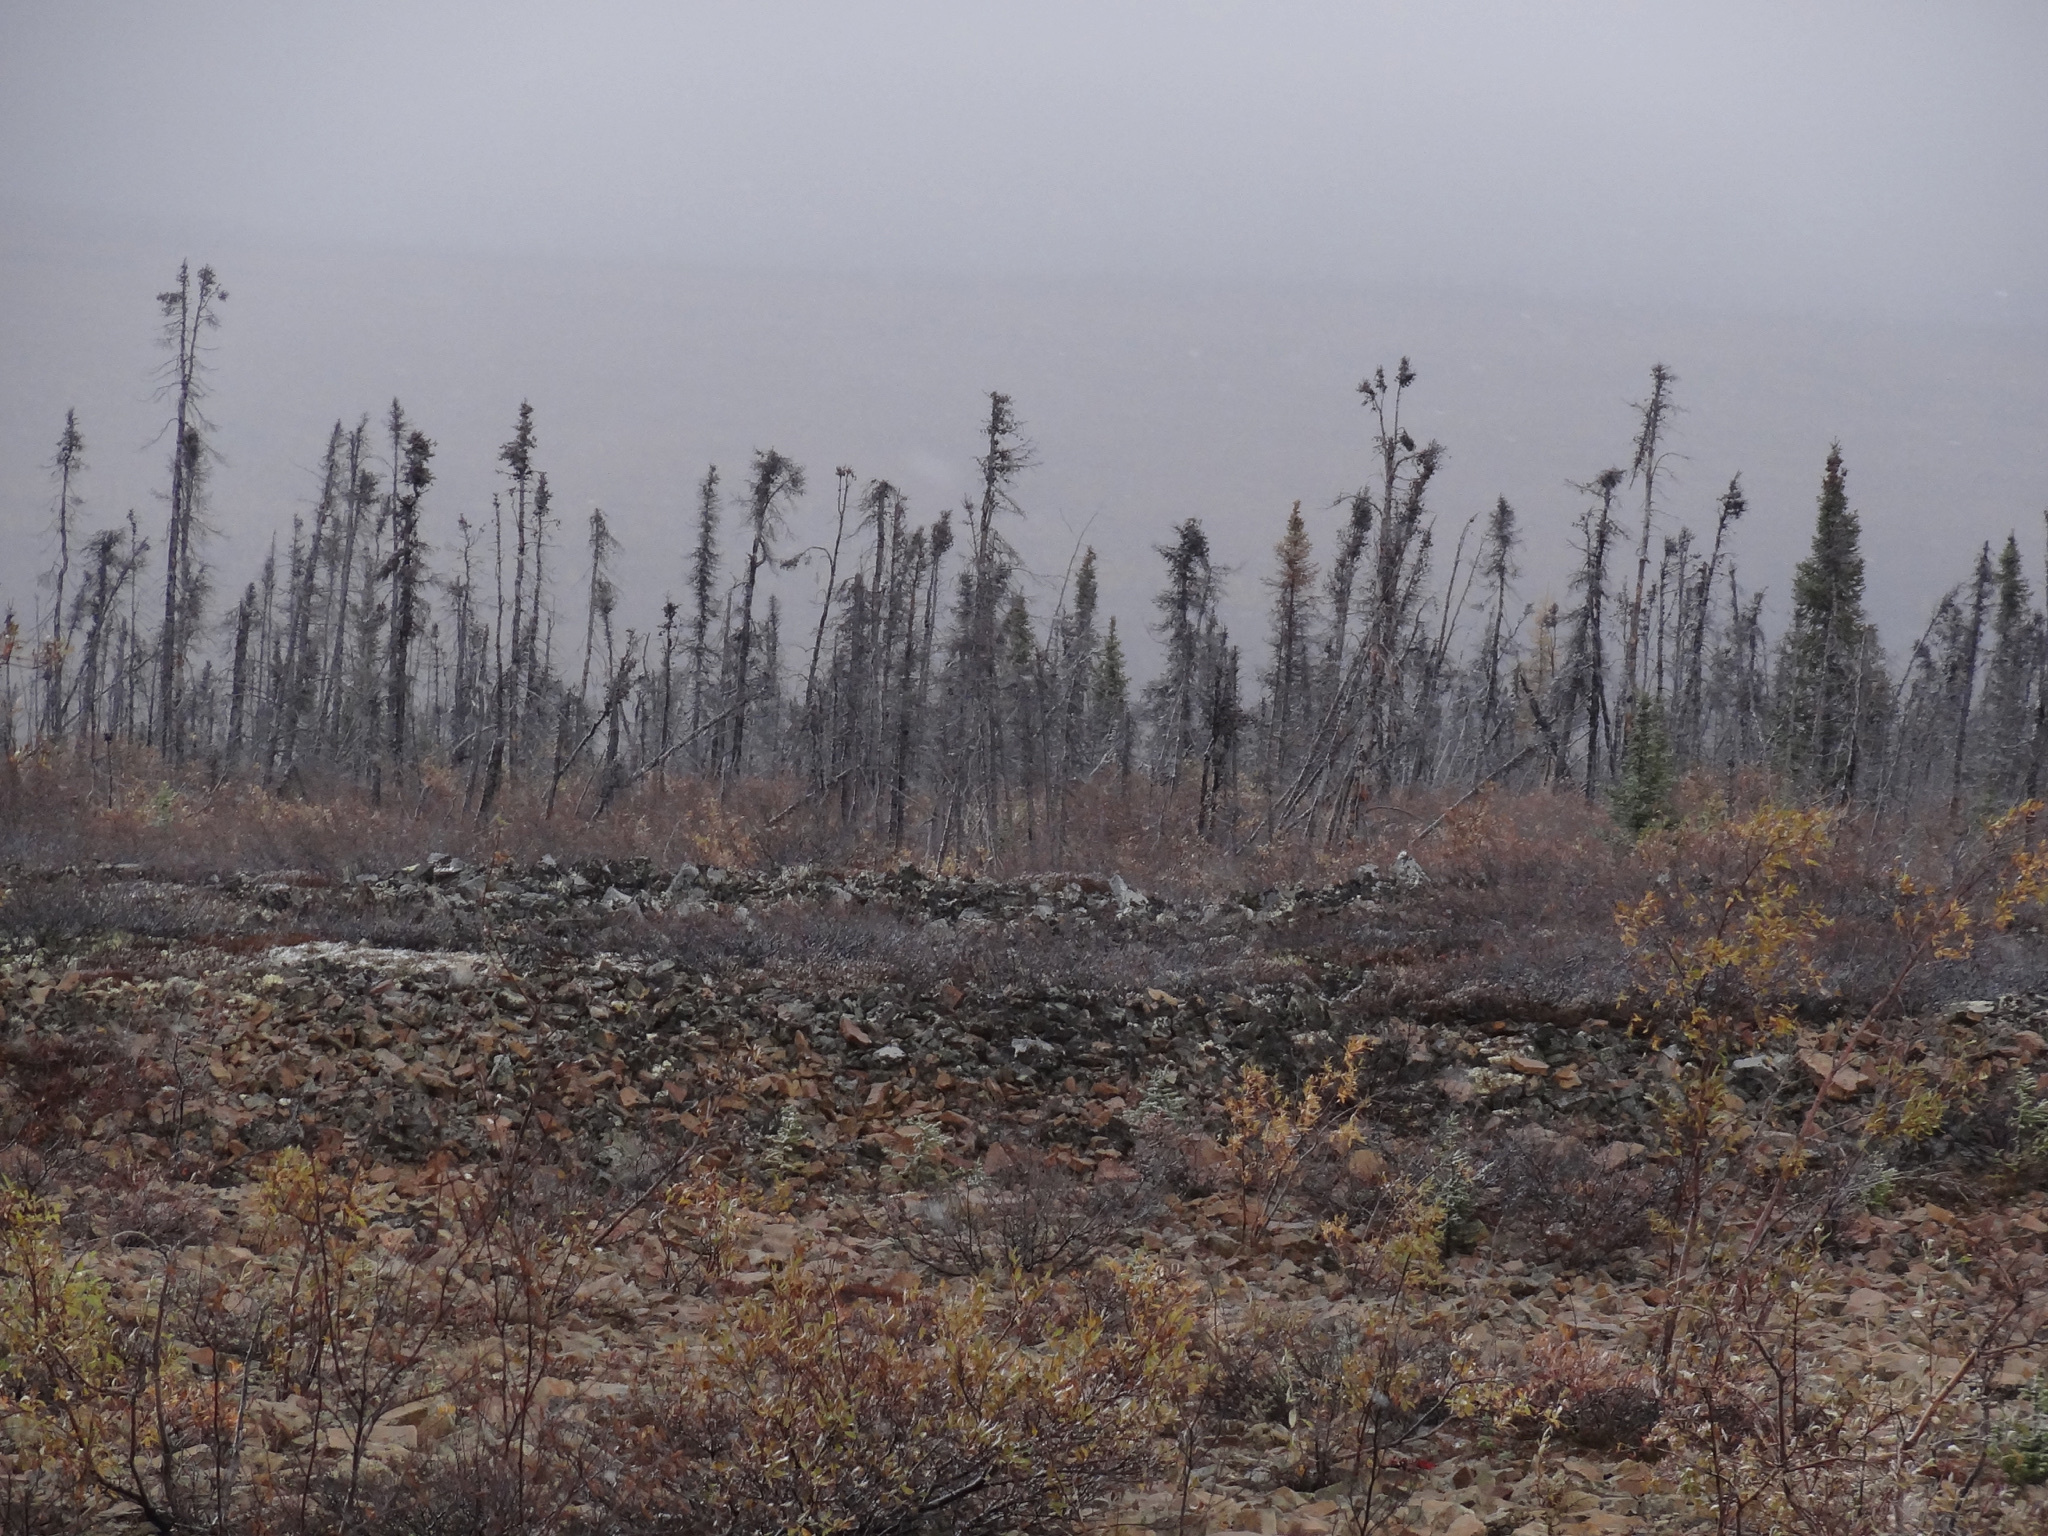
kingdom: Plantae
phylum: Tracheophyta
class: Pinopsida
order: Pinales
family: Pinaceae
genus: Picea
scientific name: Picea mariana
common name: Black spruce
